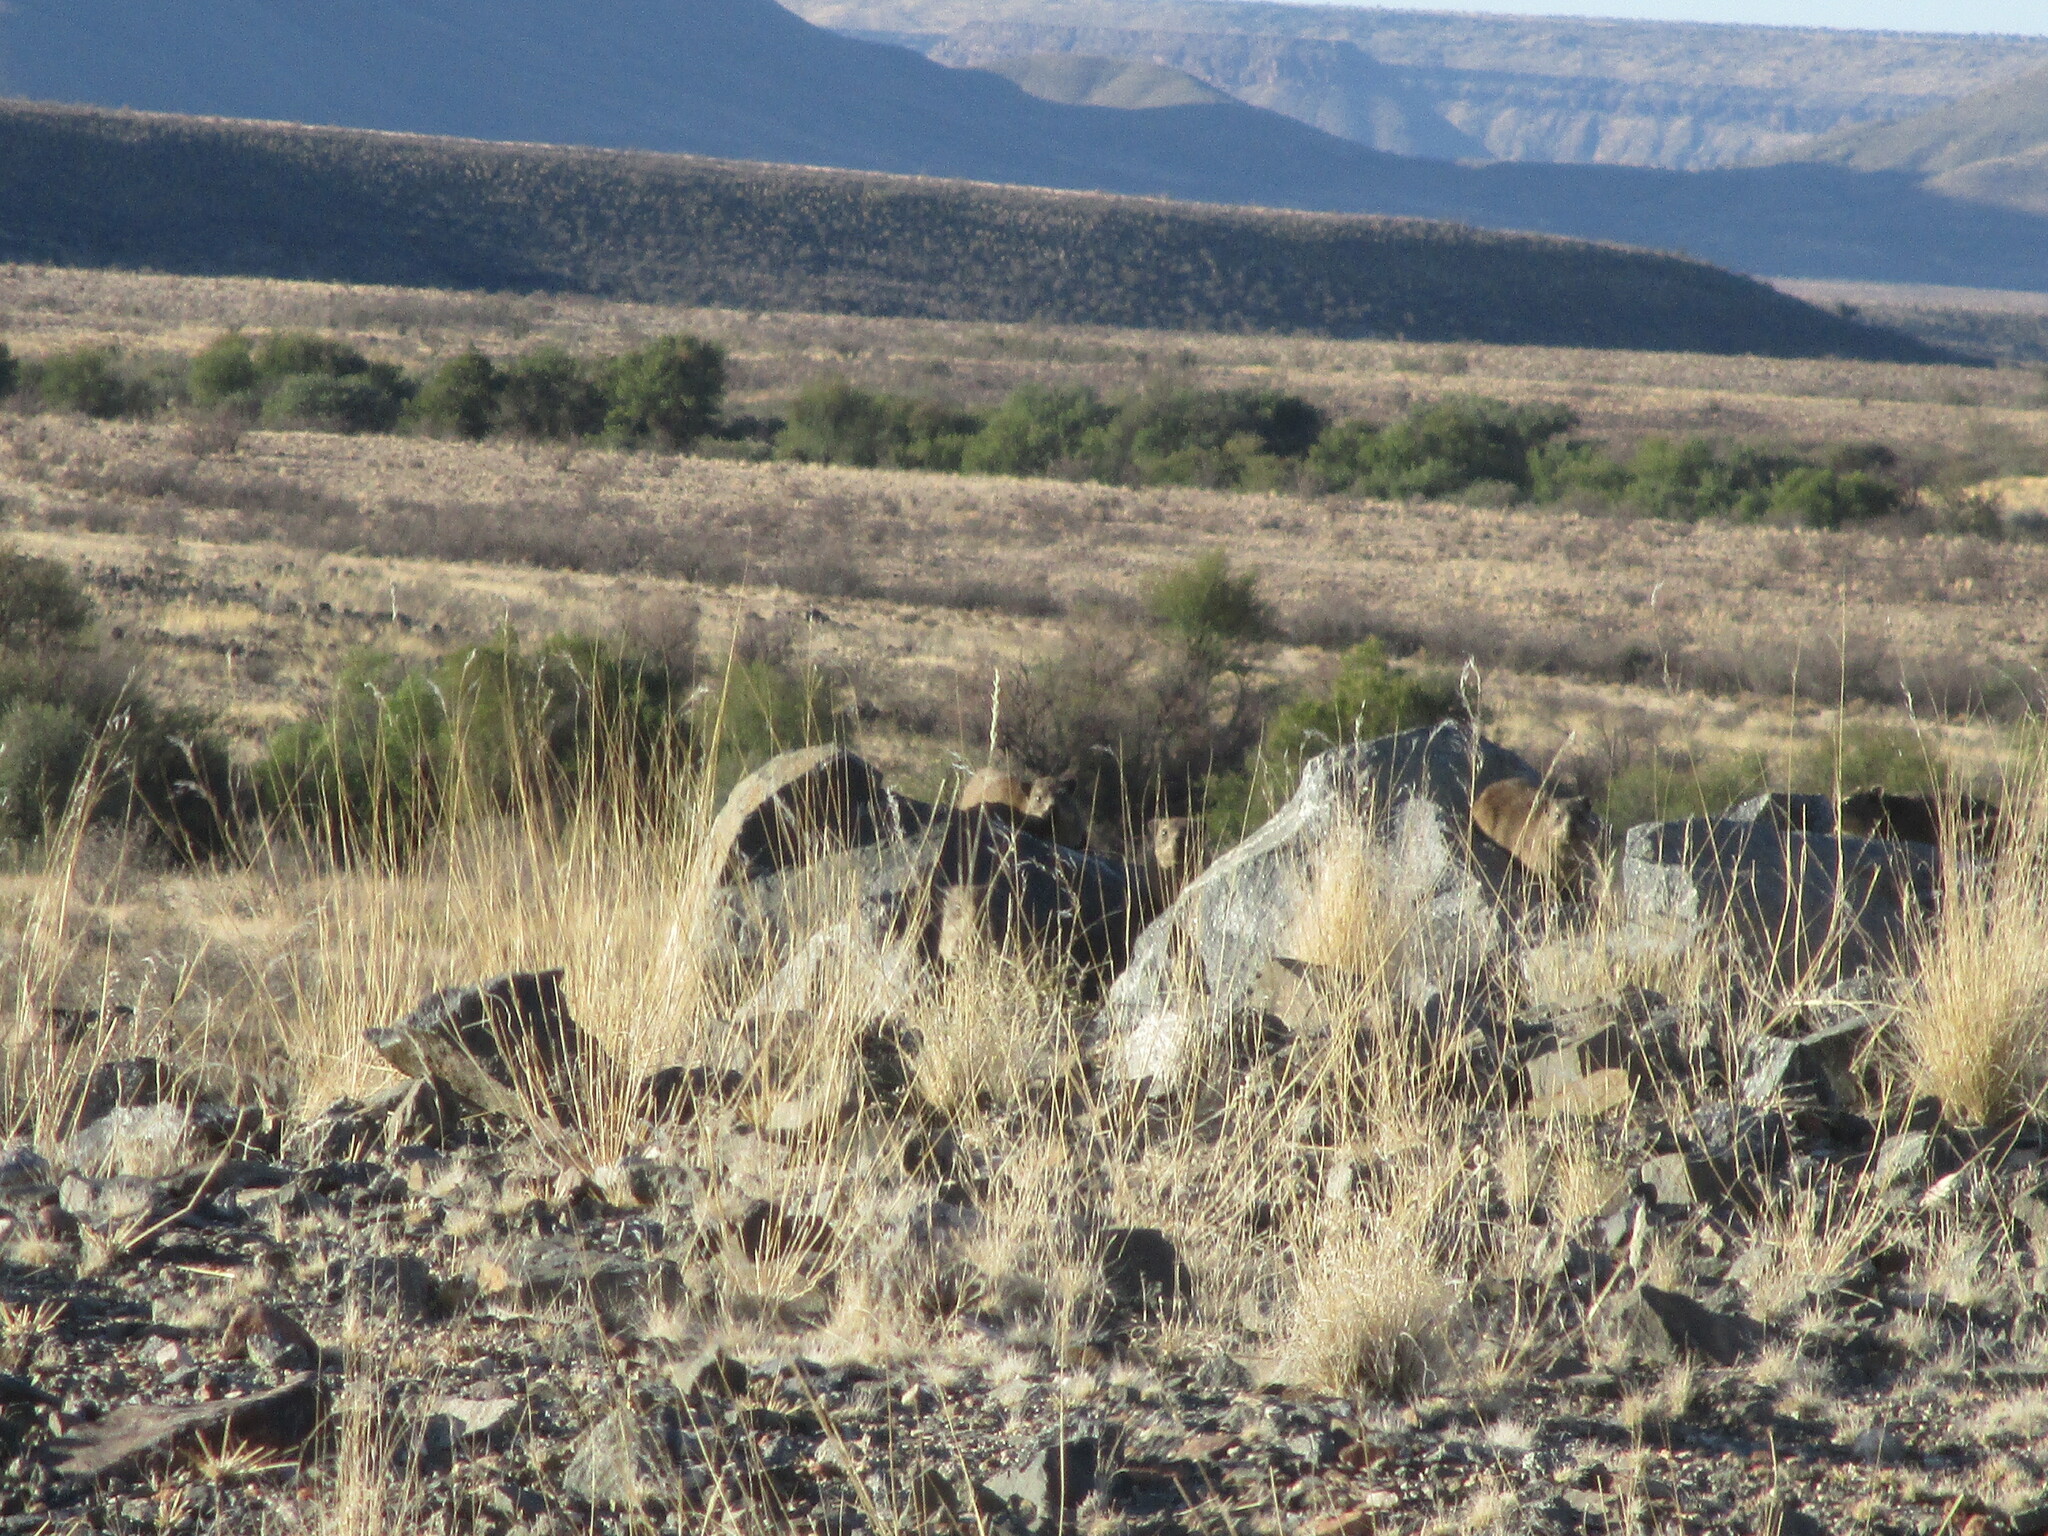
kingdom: Animalia
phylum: Chordata
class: Mammalia
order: Hyracoidea
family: Procaviidae
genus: Procavia
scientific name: Procavia capensis
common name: Rock hyrax
